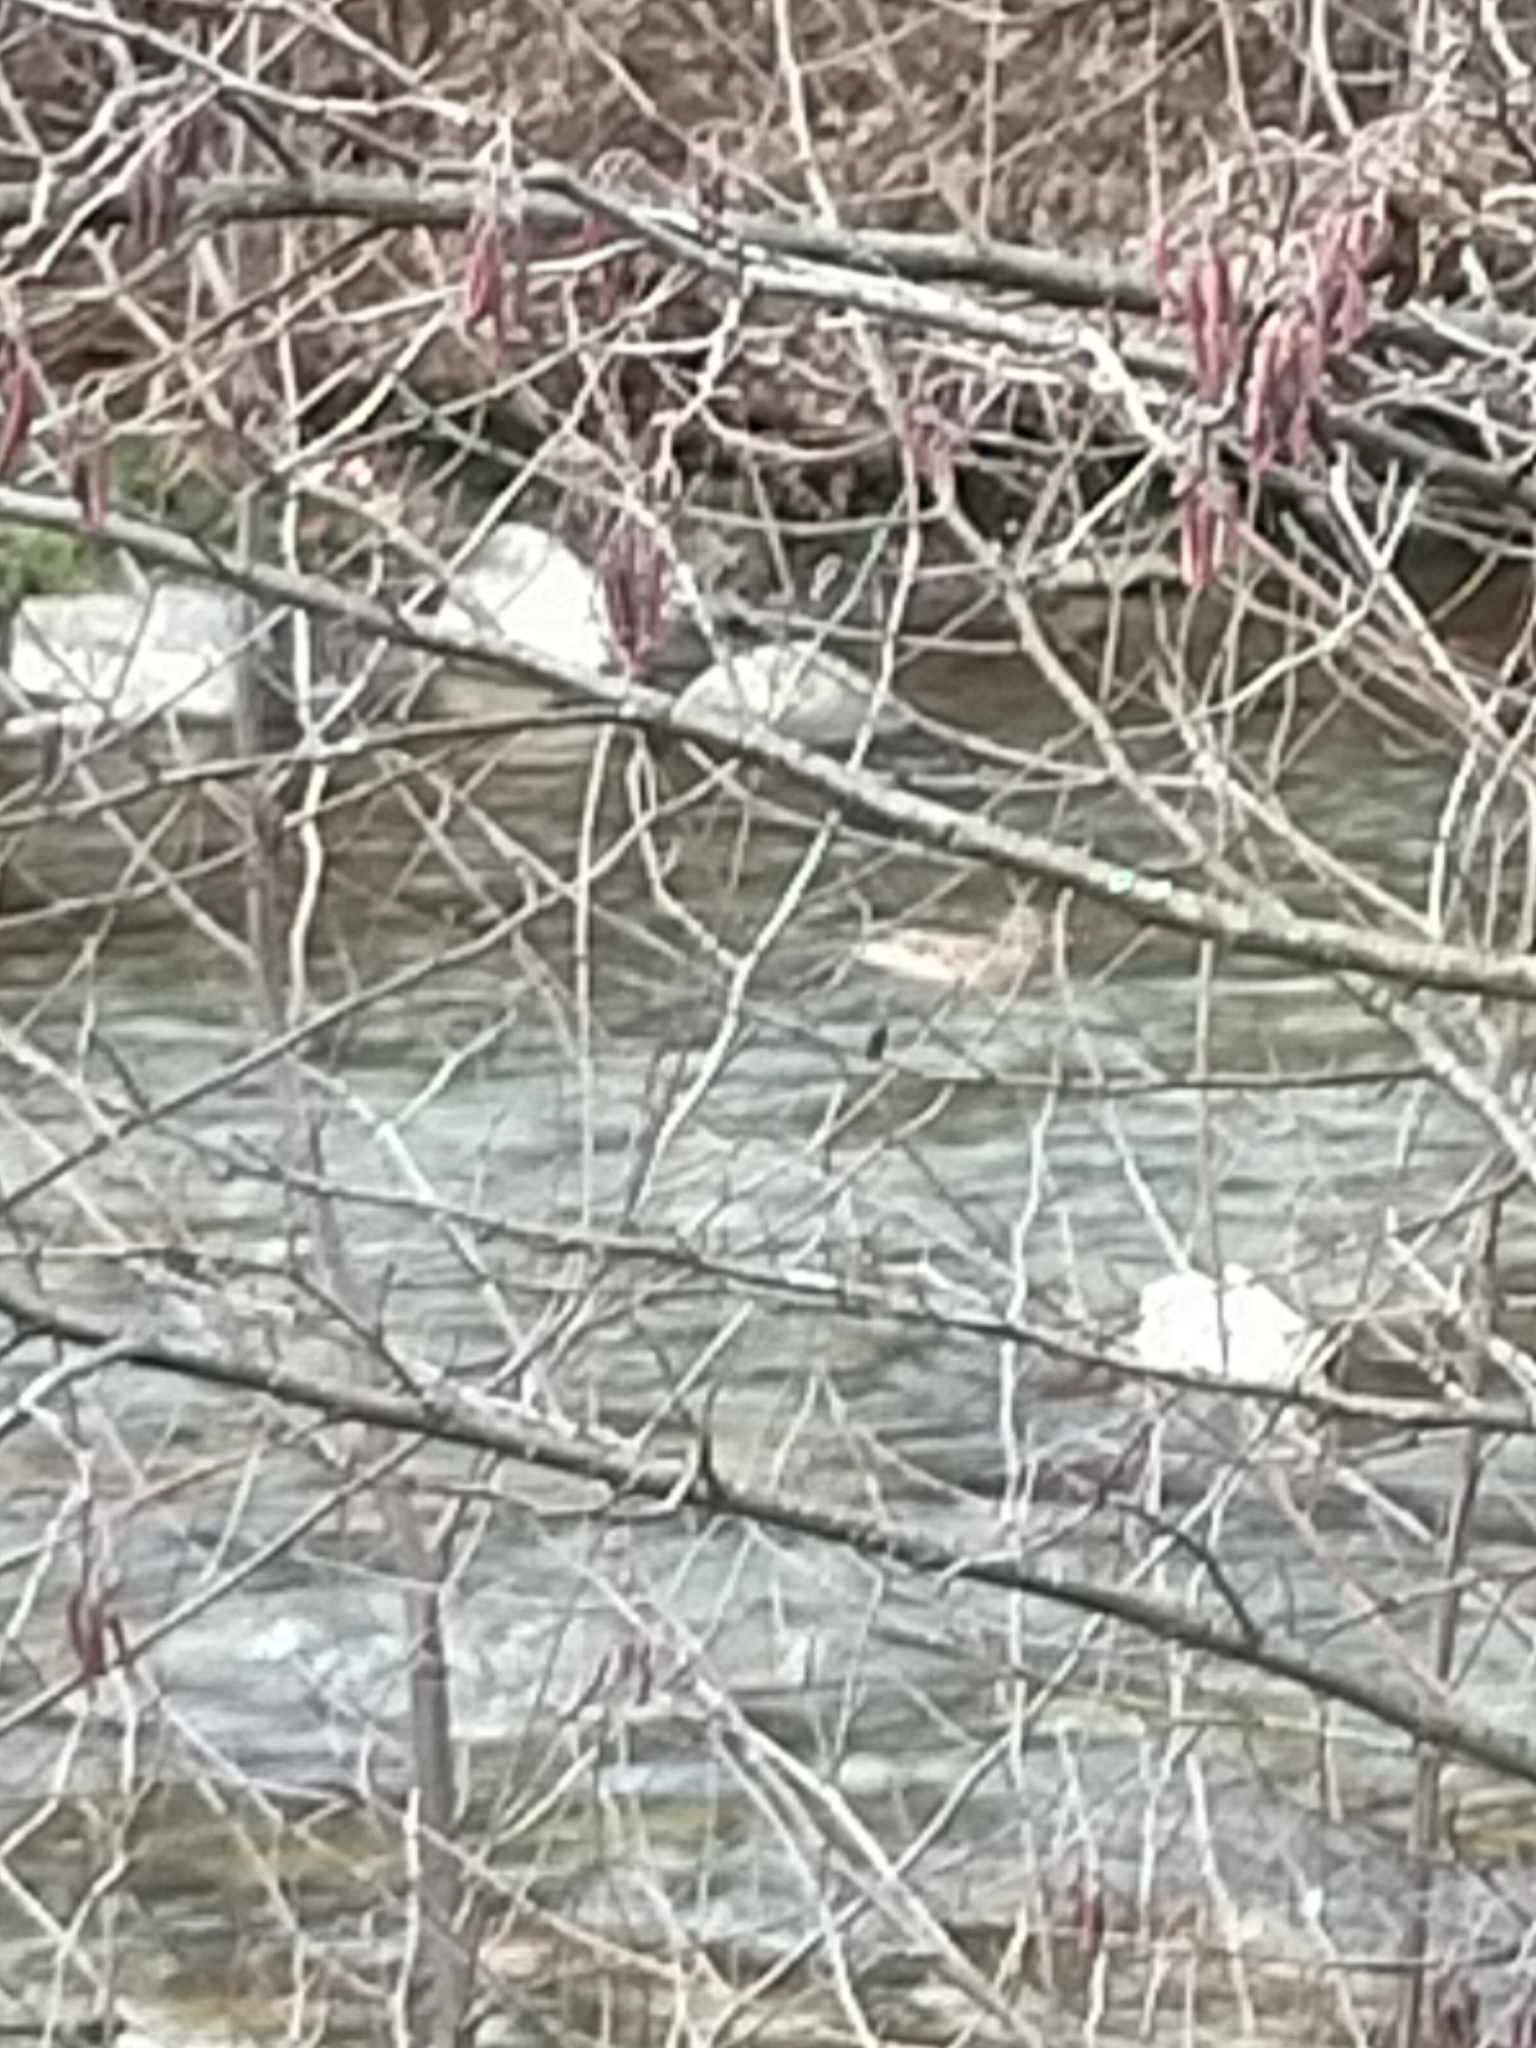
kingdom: Animalia
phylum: Chordata
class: Aves
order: Anseriformes
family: Anatidae
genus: Anas
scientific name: Anas platyrhynchos
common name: Mallard
